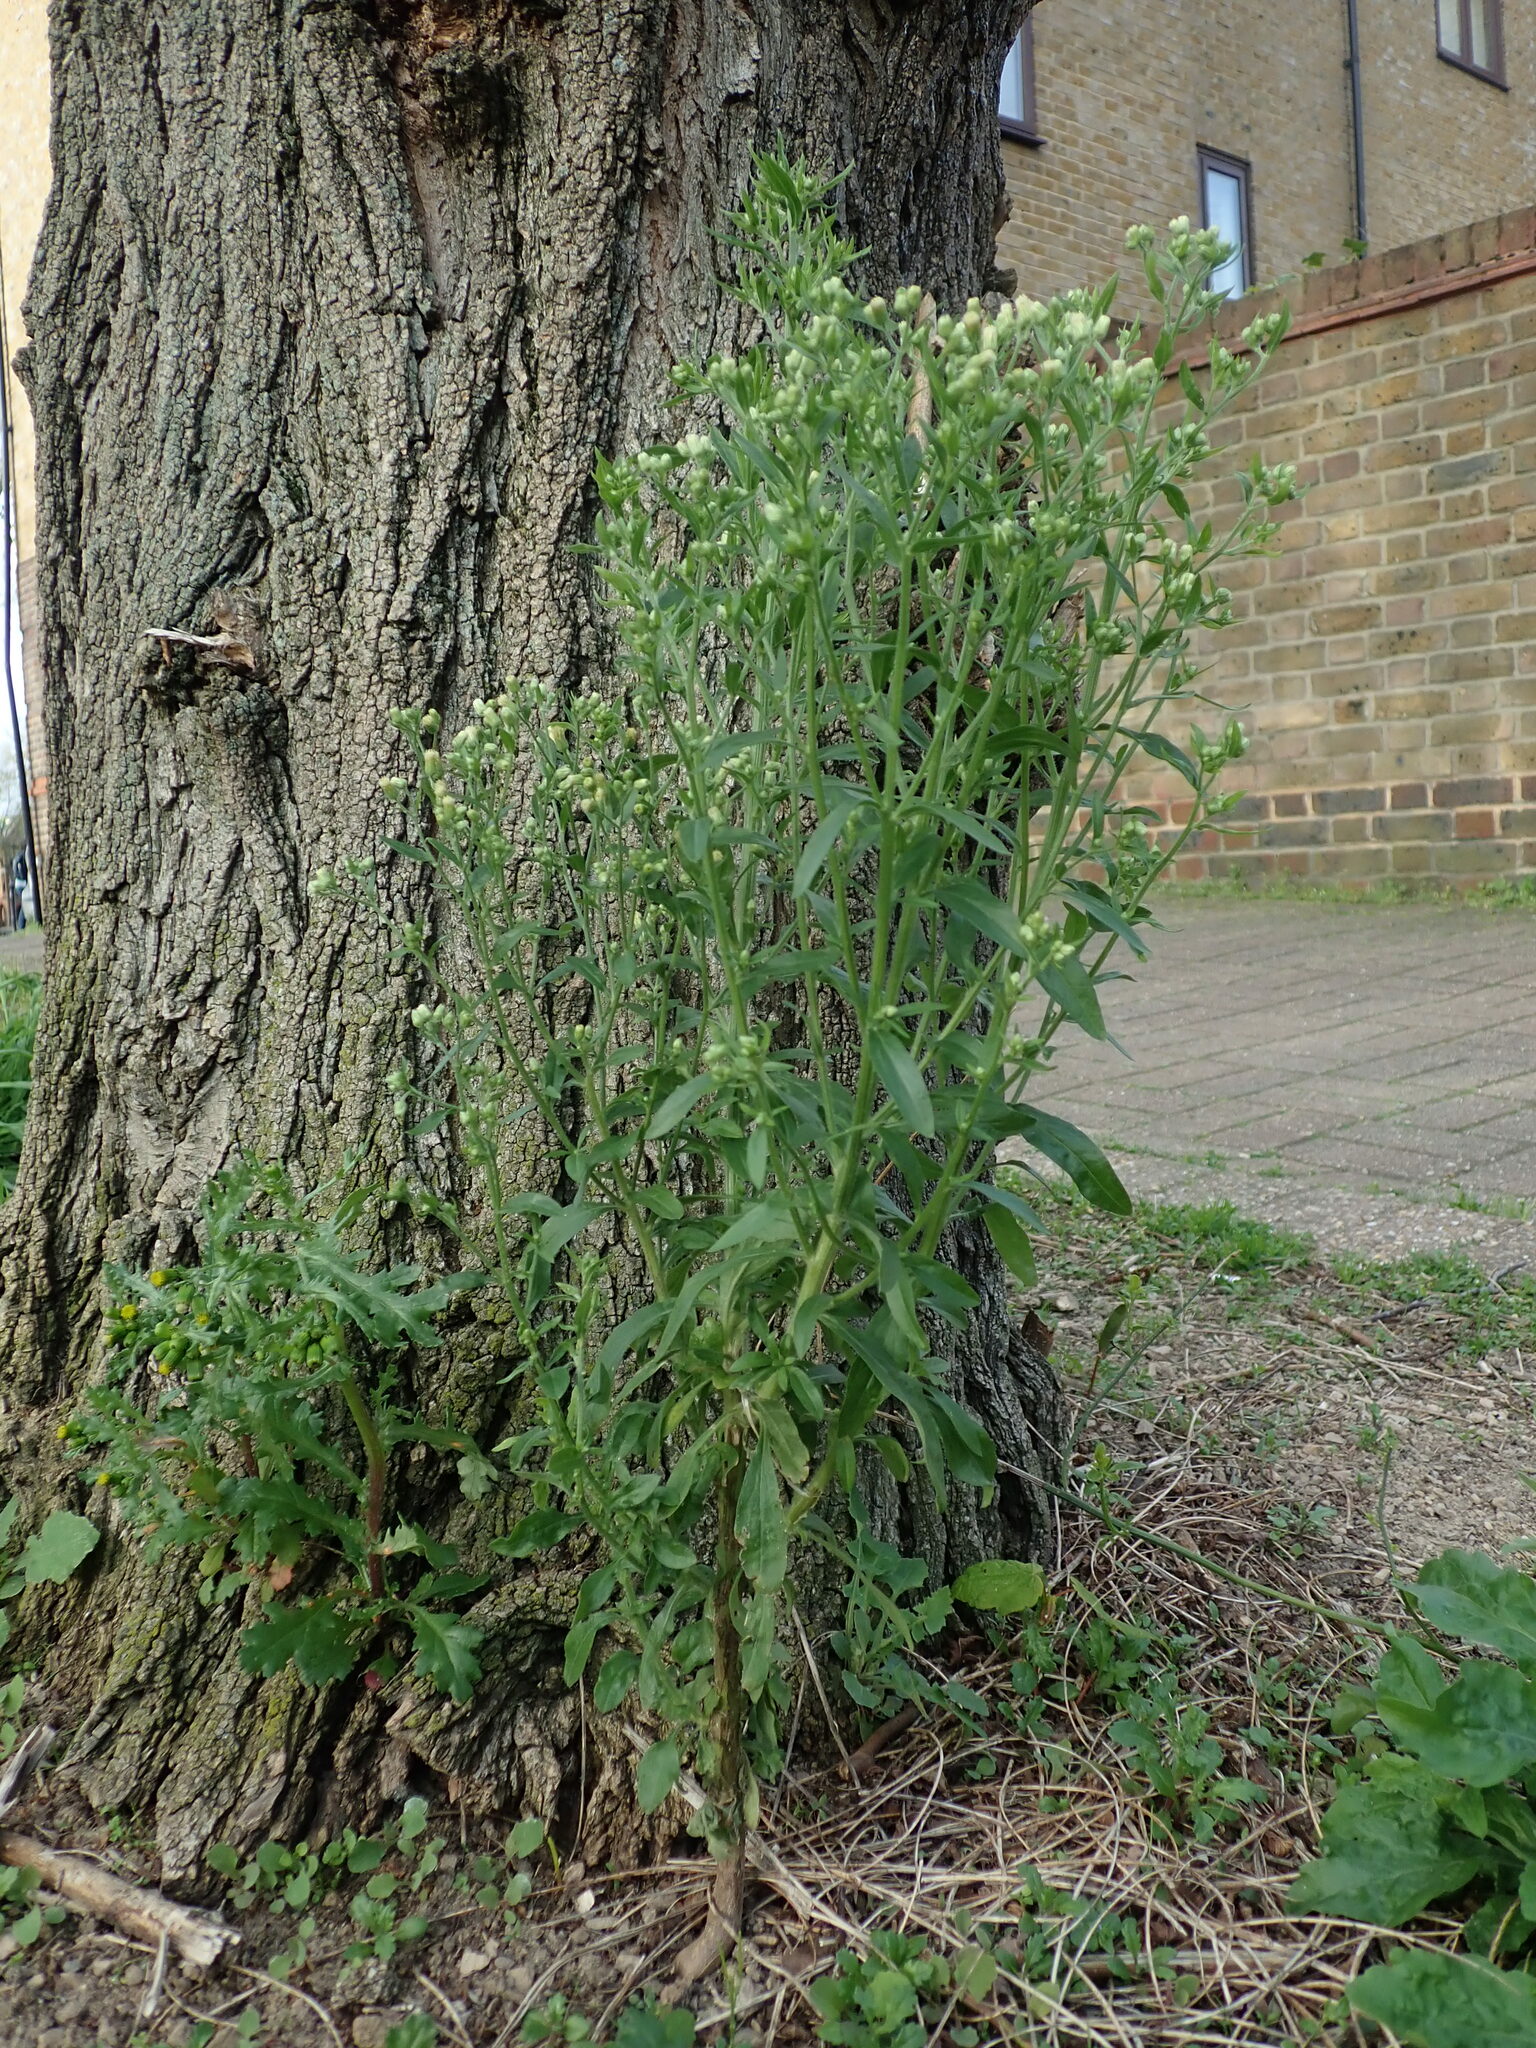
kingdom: Plantae
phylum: Tracheophyta
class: Magnoliopsida
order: Asterales
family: Asteraceae
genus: Erigeron
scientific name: Erigeron sumatrensis
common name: Daisy
